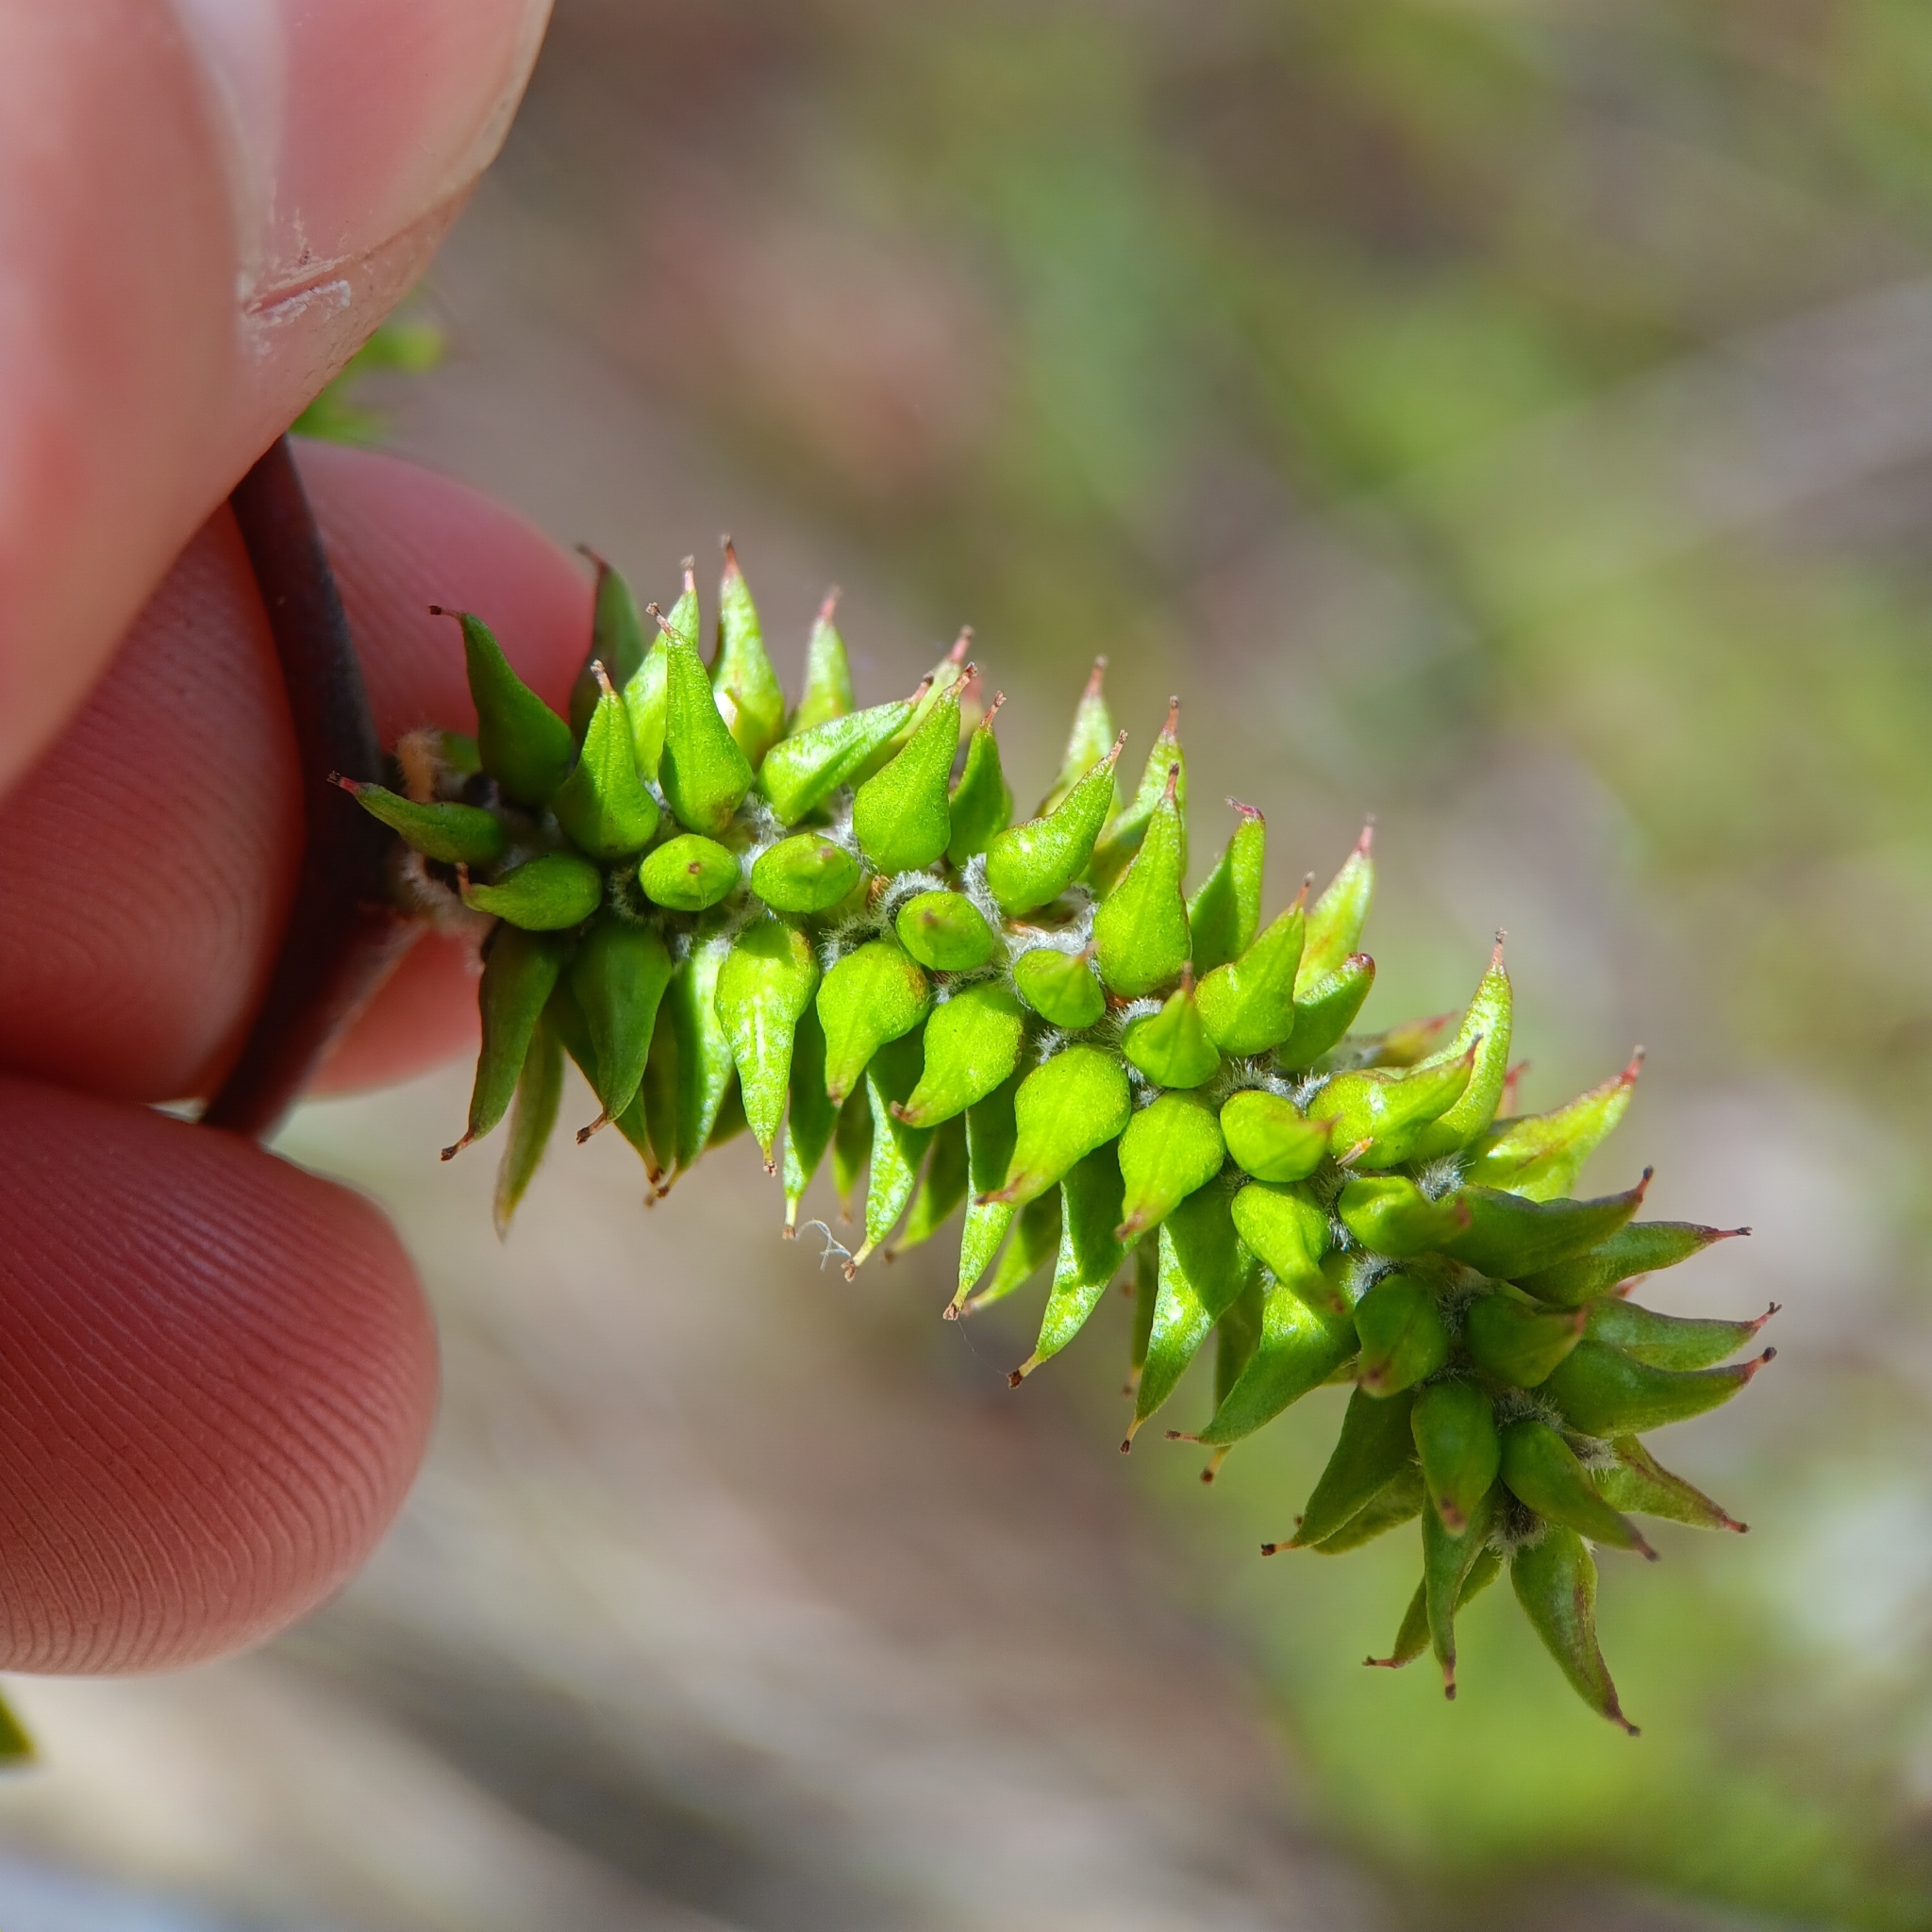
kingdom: Plantae
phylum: Tracheophyta
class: Magnoliopsida
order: Malpighiales
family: Salicaceae
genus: Salix
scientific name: Salix lasiolepis
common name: Arroyo willow
